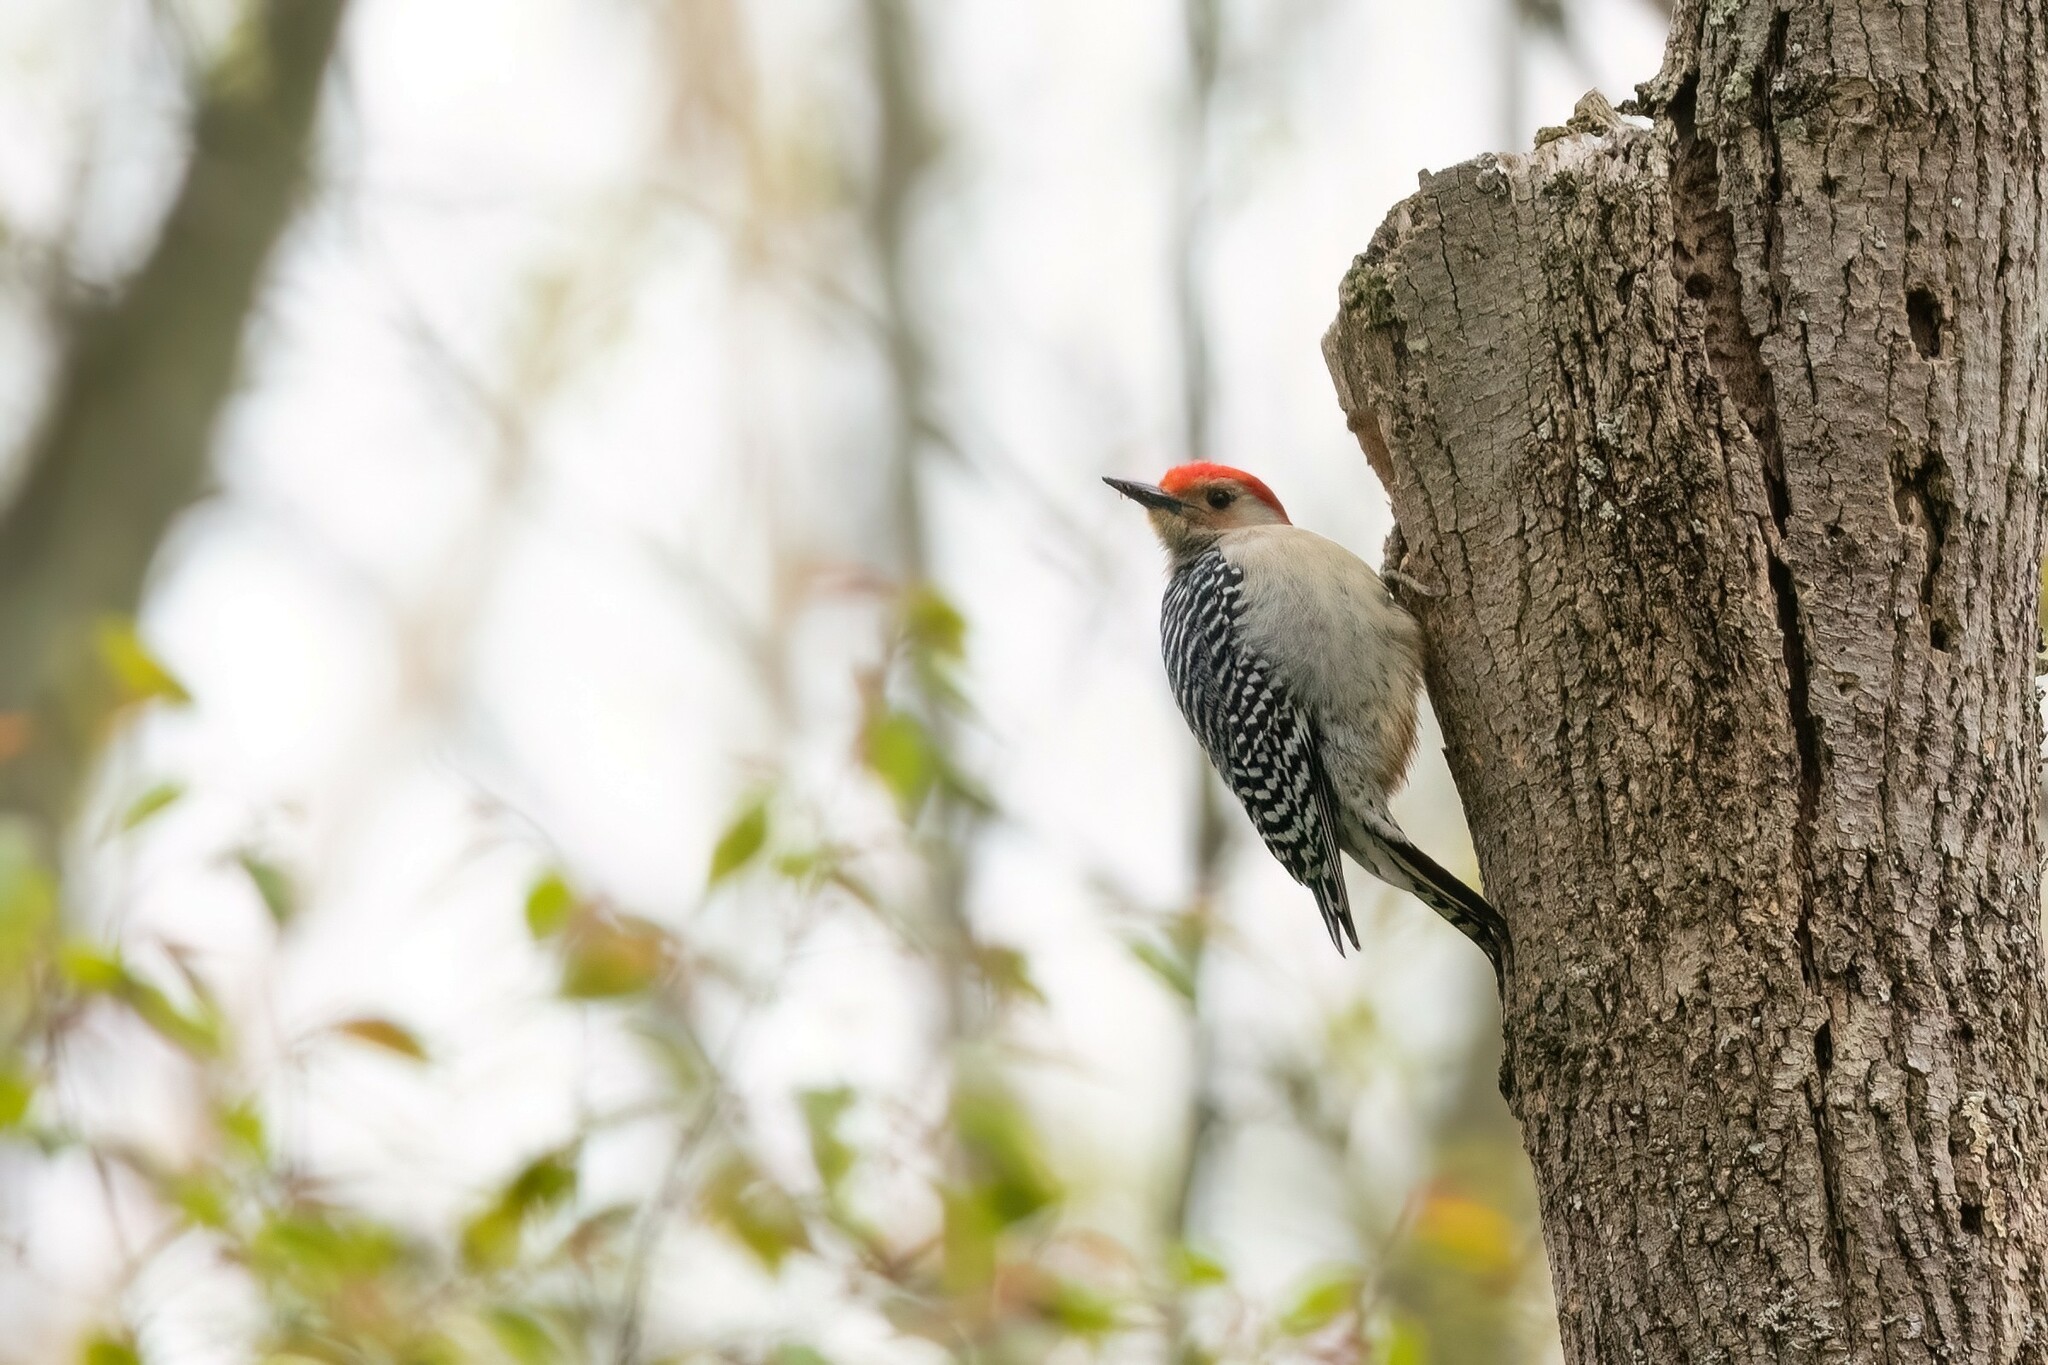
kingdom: Animalia
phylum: Chordata
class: Aves
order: Piciformes
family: Picidae
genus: Melanerpes
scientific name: Melanerpes carolinus
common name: Red-bellied woodpecker
